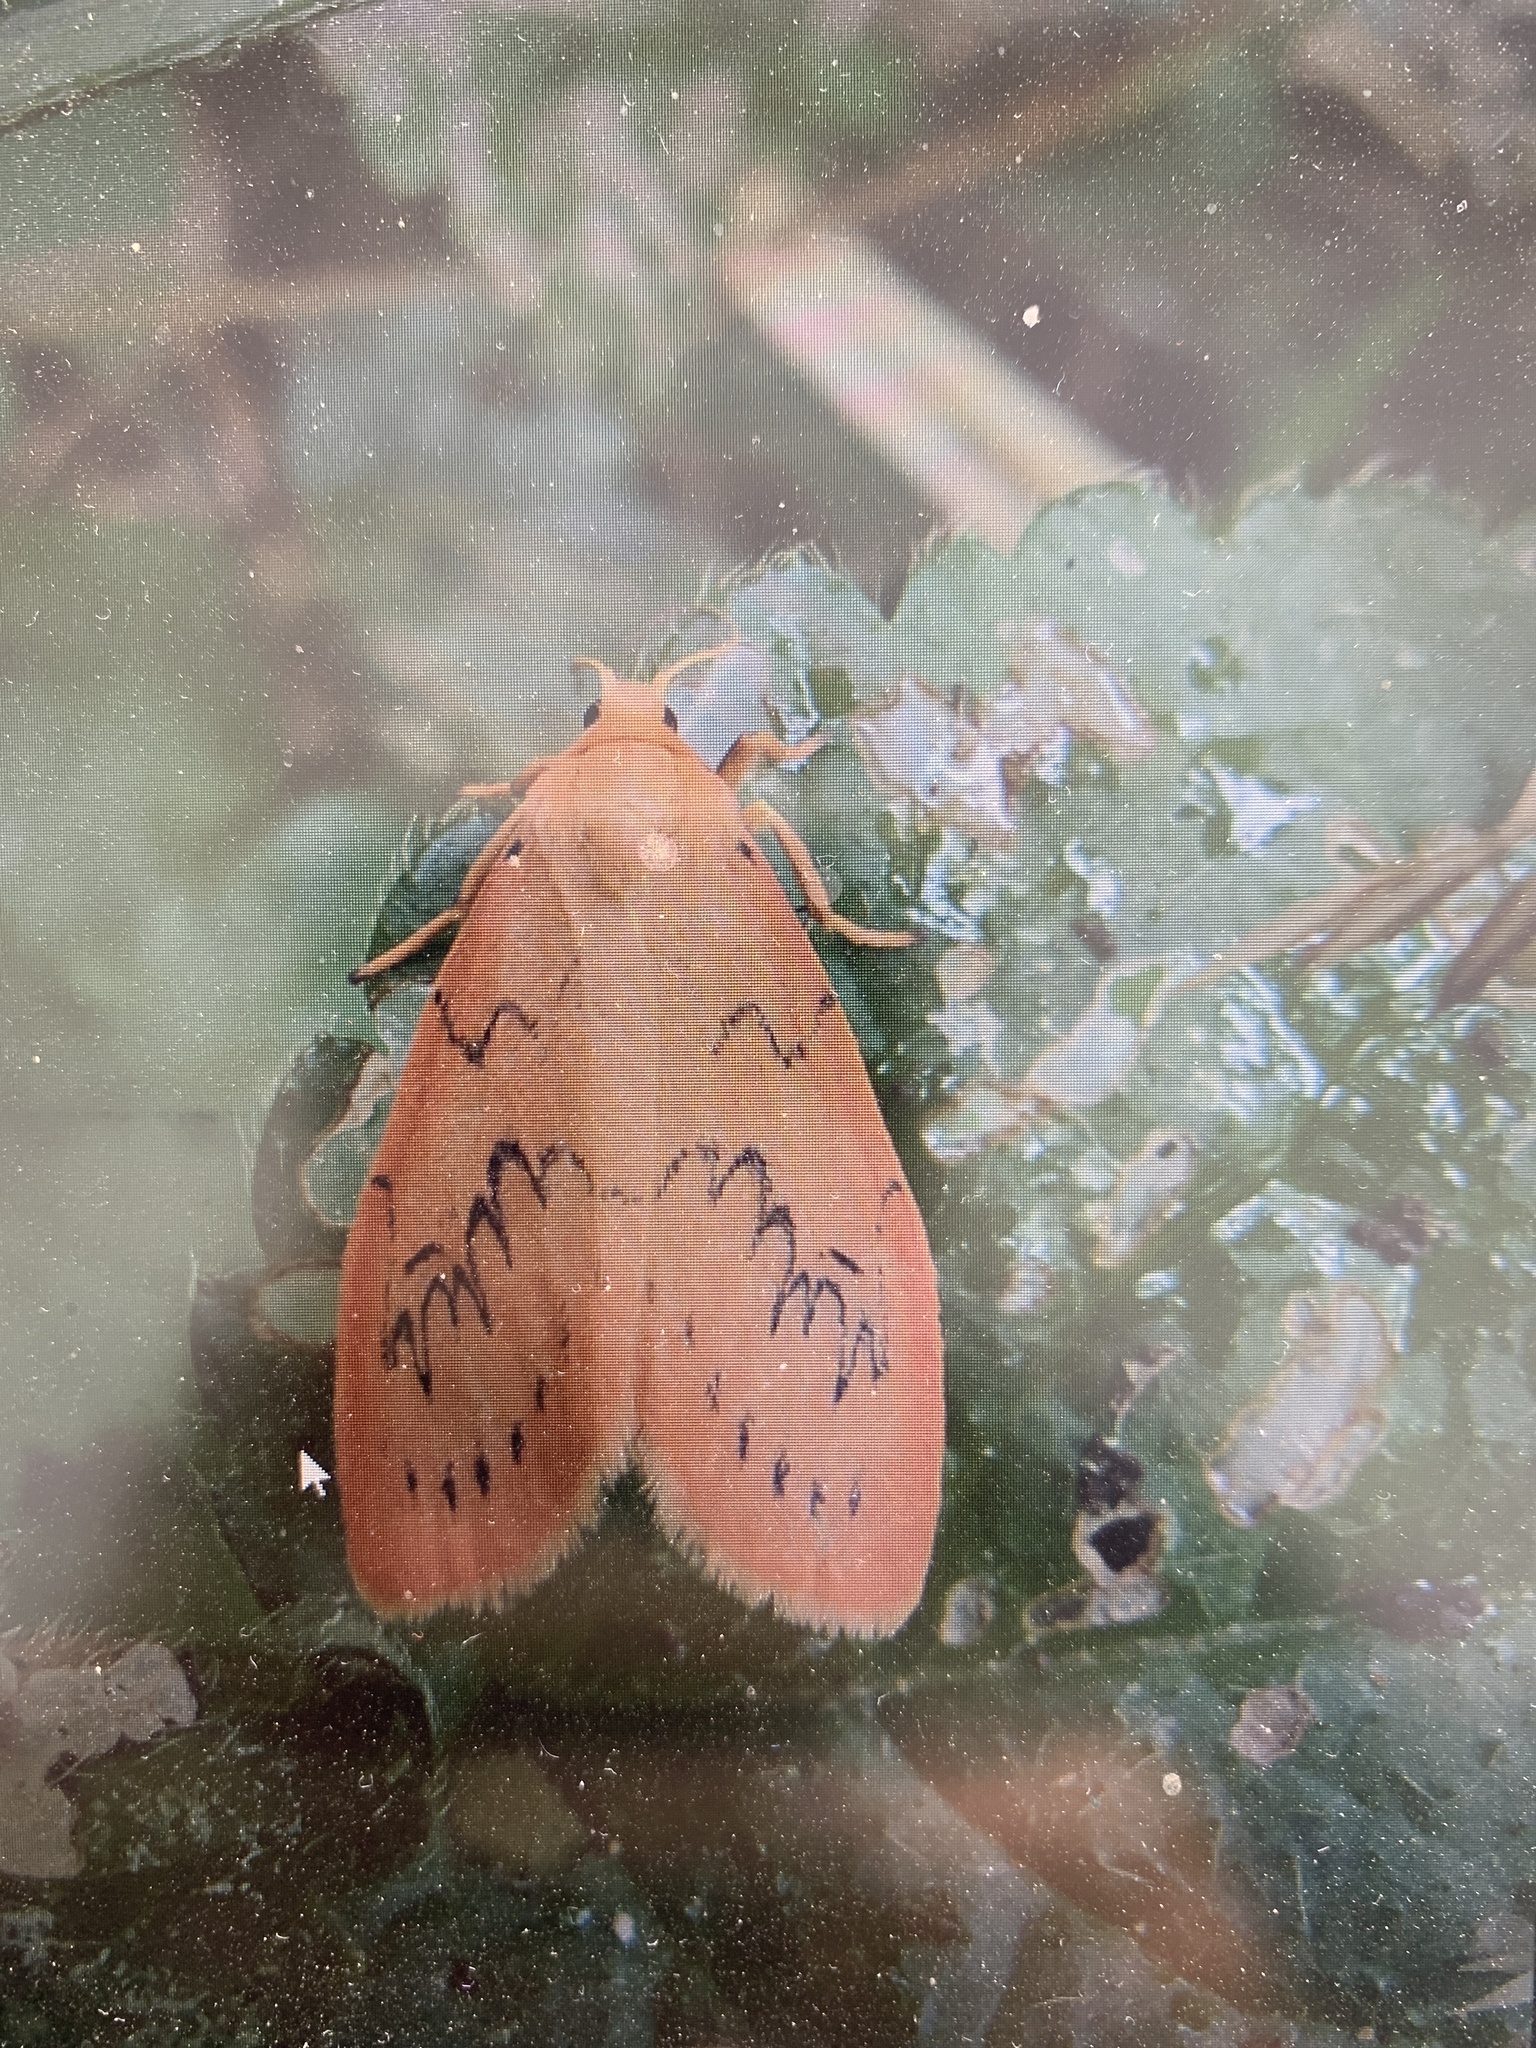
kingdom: Animalia
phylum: Arthropoda
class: Insecta
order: Lepidoptera
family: Erebidae
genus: Miltochrista
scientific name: Miltochrista miniata
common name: Rosy footman
